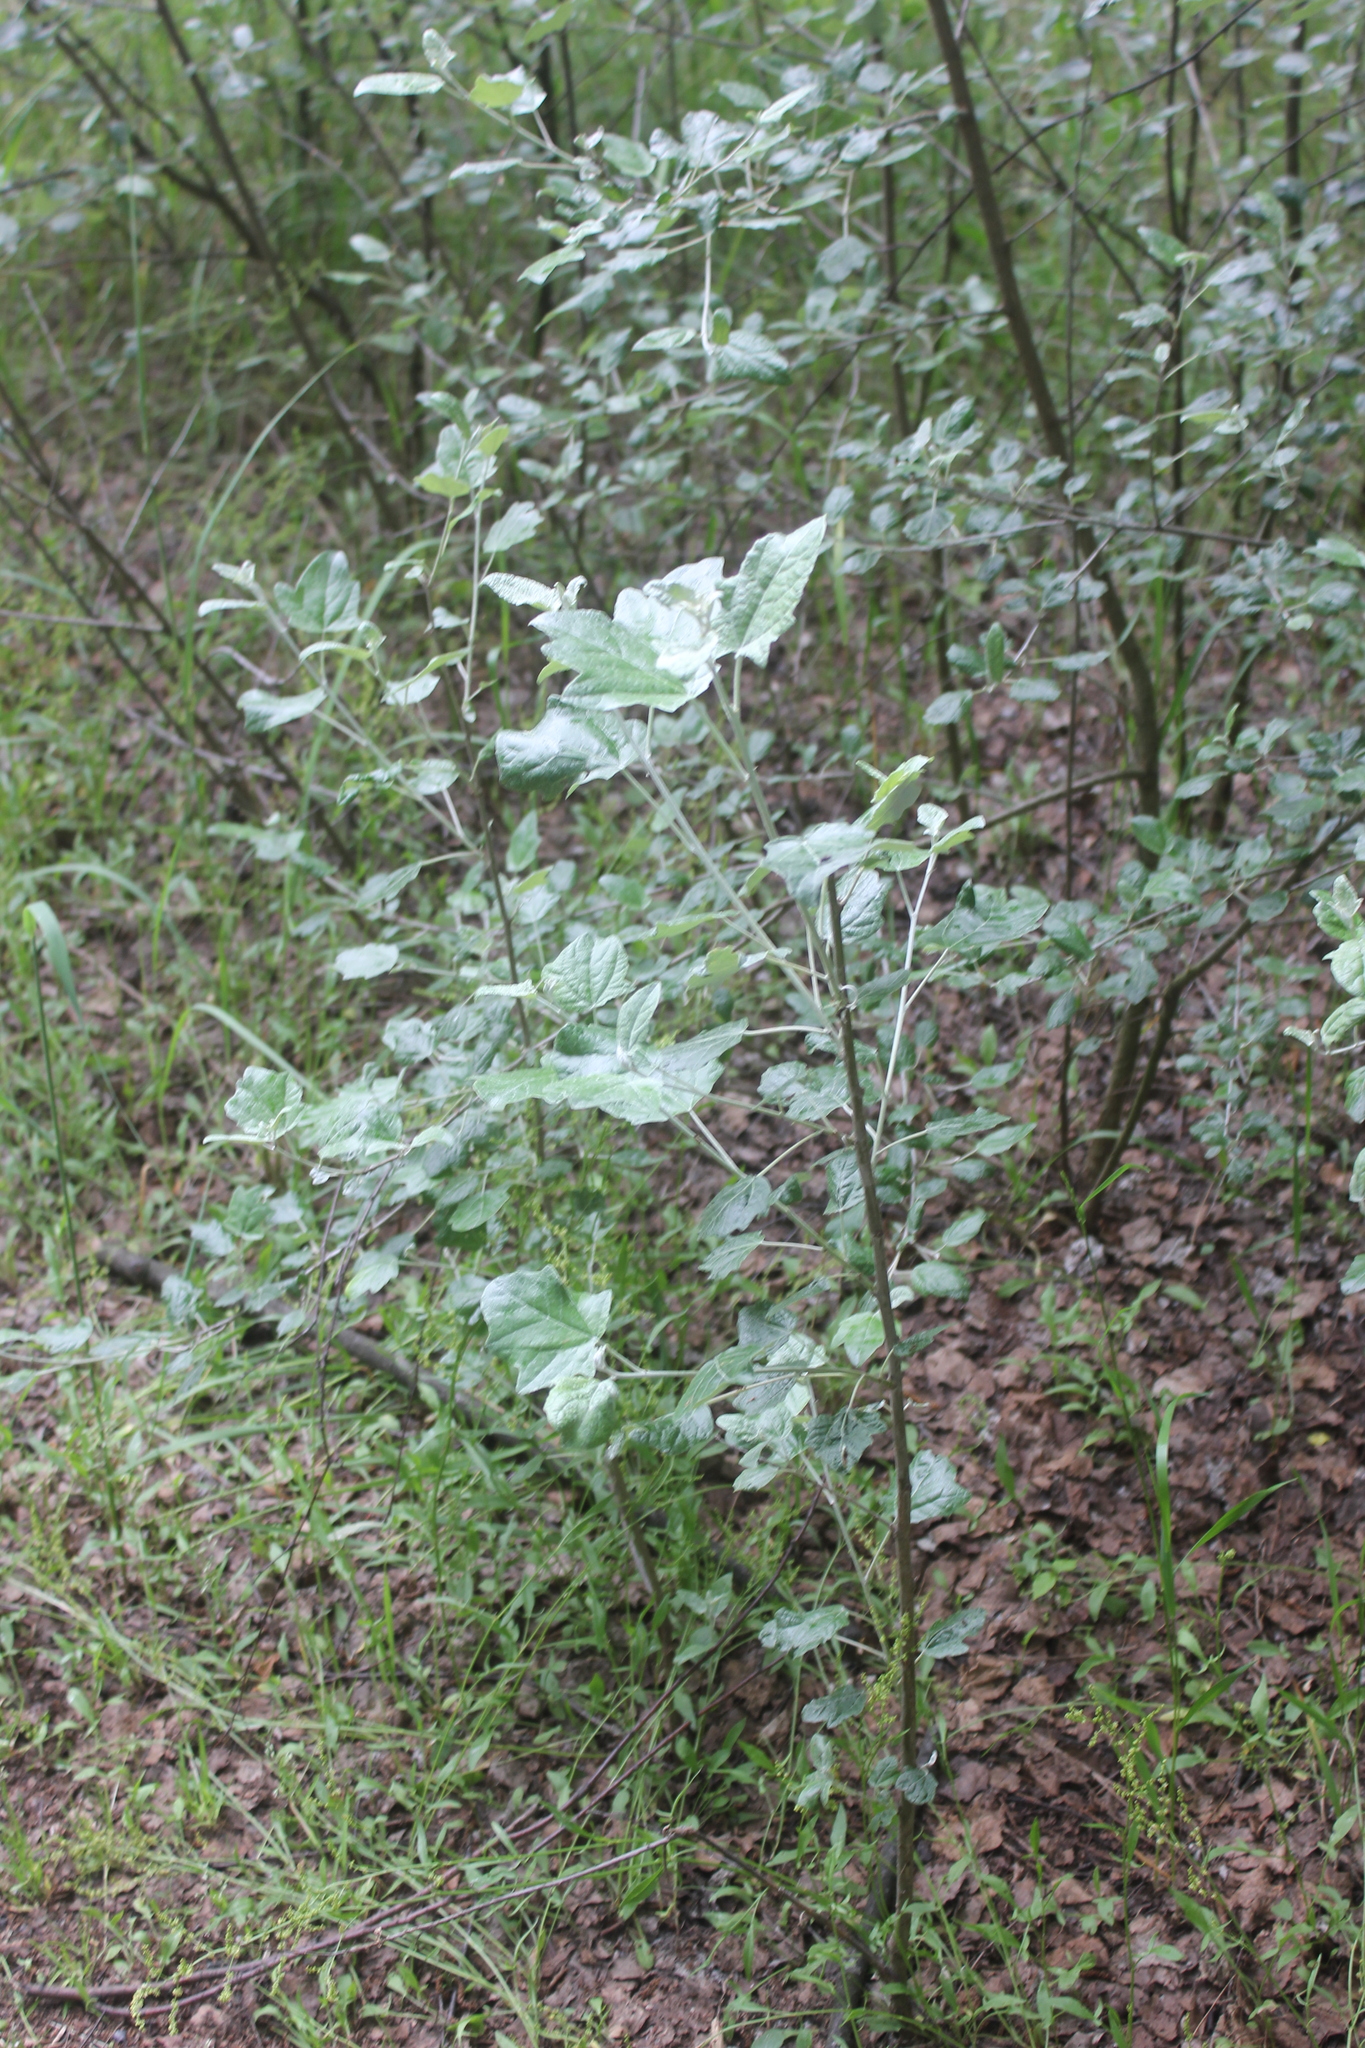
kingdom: Plantae
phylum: Tracheophyta
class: Magnoliopsida
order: Malpighiales
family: Salicaceae
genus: Populus
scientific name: Populus alba
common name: White poplar
